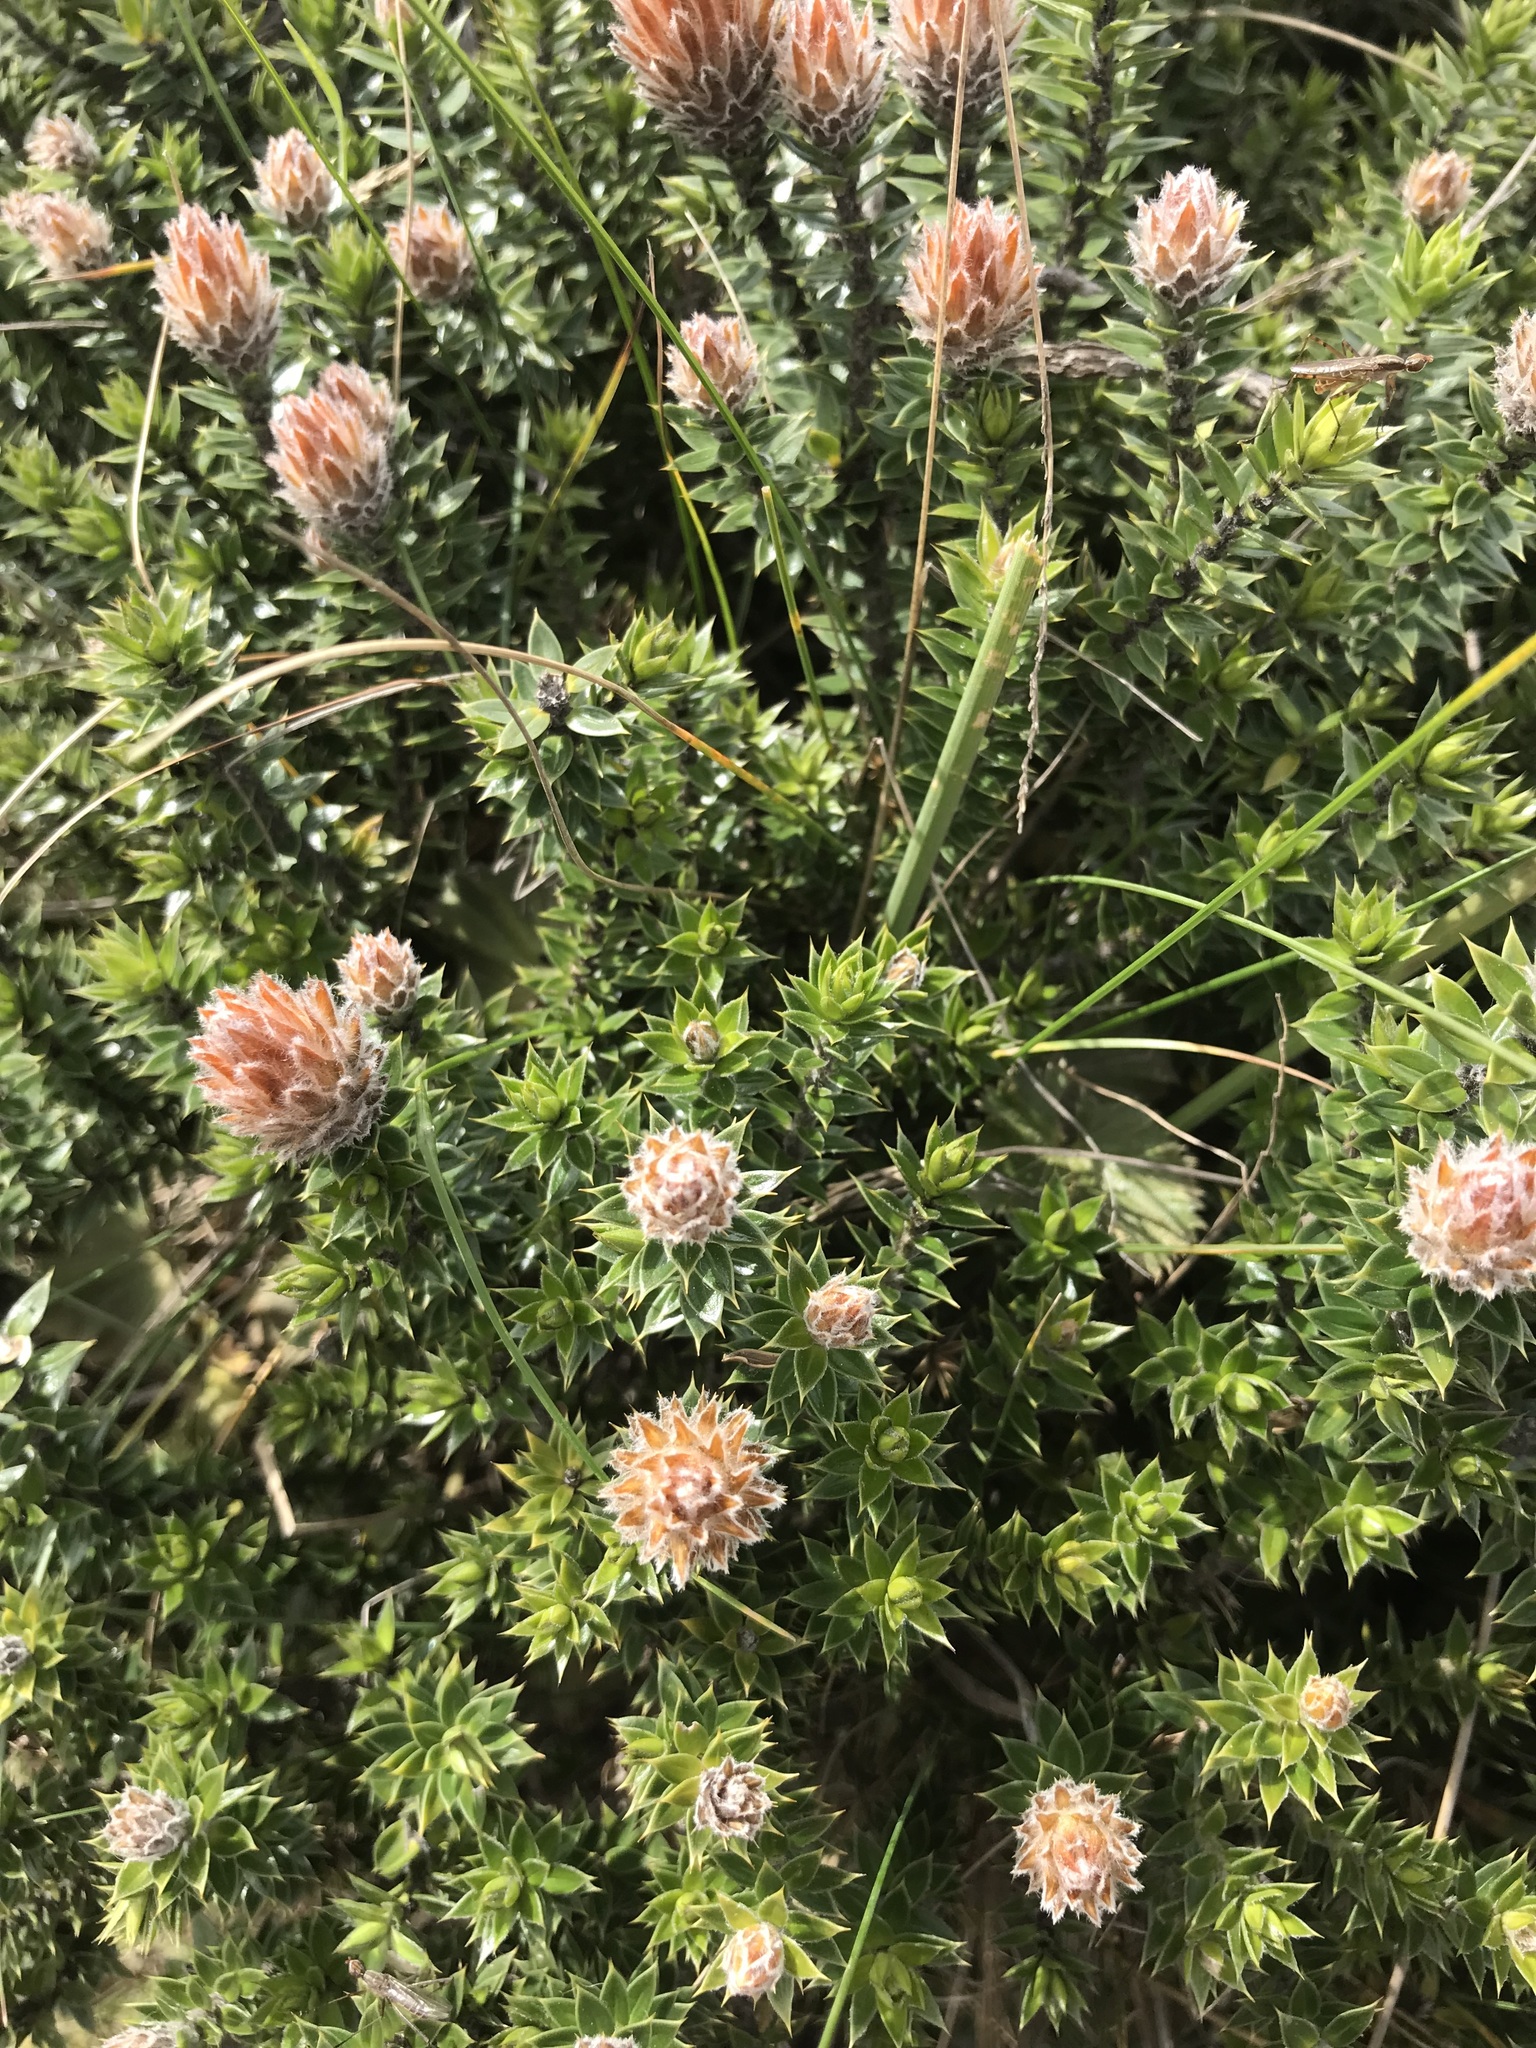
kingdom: Plantae
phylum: Tracheophyta
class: Magnoliopsida
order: Asterales
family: Asteraceae
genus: Chuquiraga
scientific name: Chuquiraga jussieui
